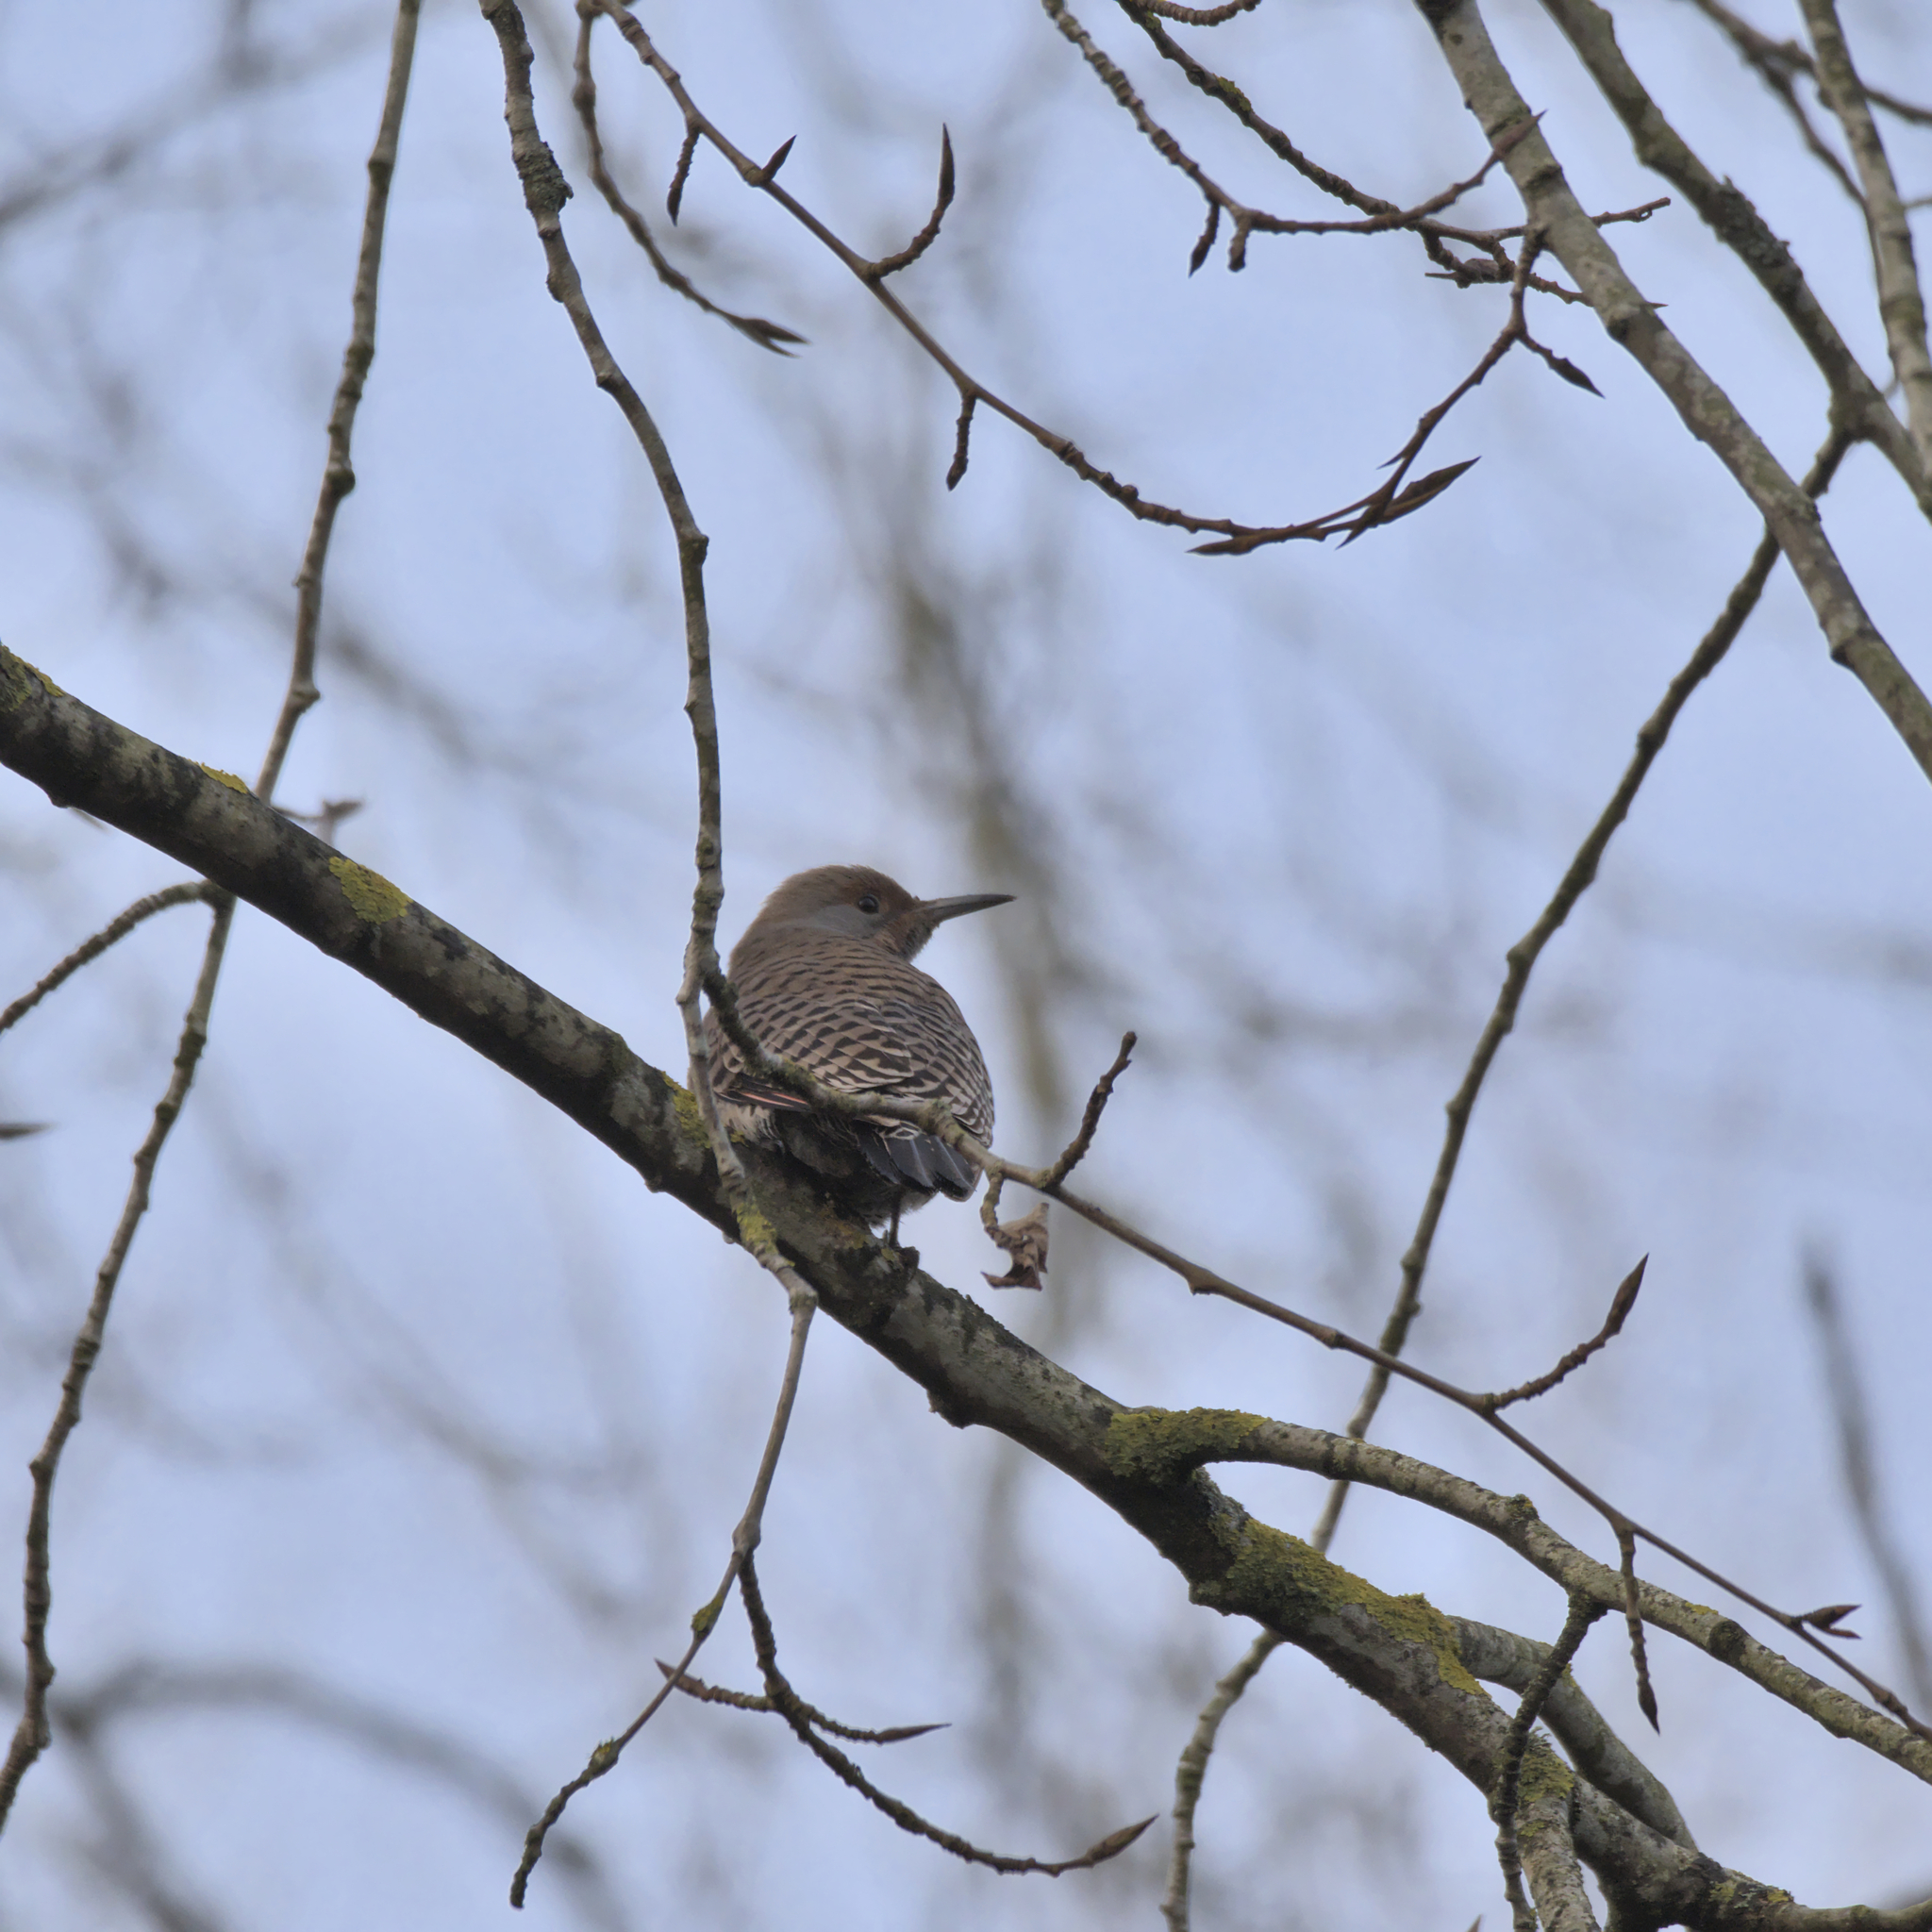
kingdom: Animalia
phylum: Chordata
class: Aves
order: Piciformes
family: Picidae
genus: Colaptes
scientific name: Colaptes auratus
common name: Northern flicker
